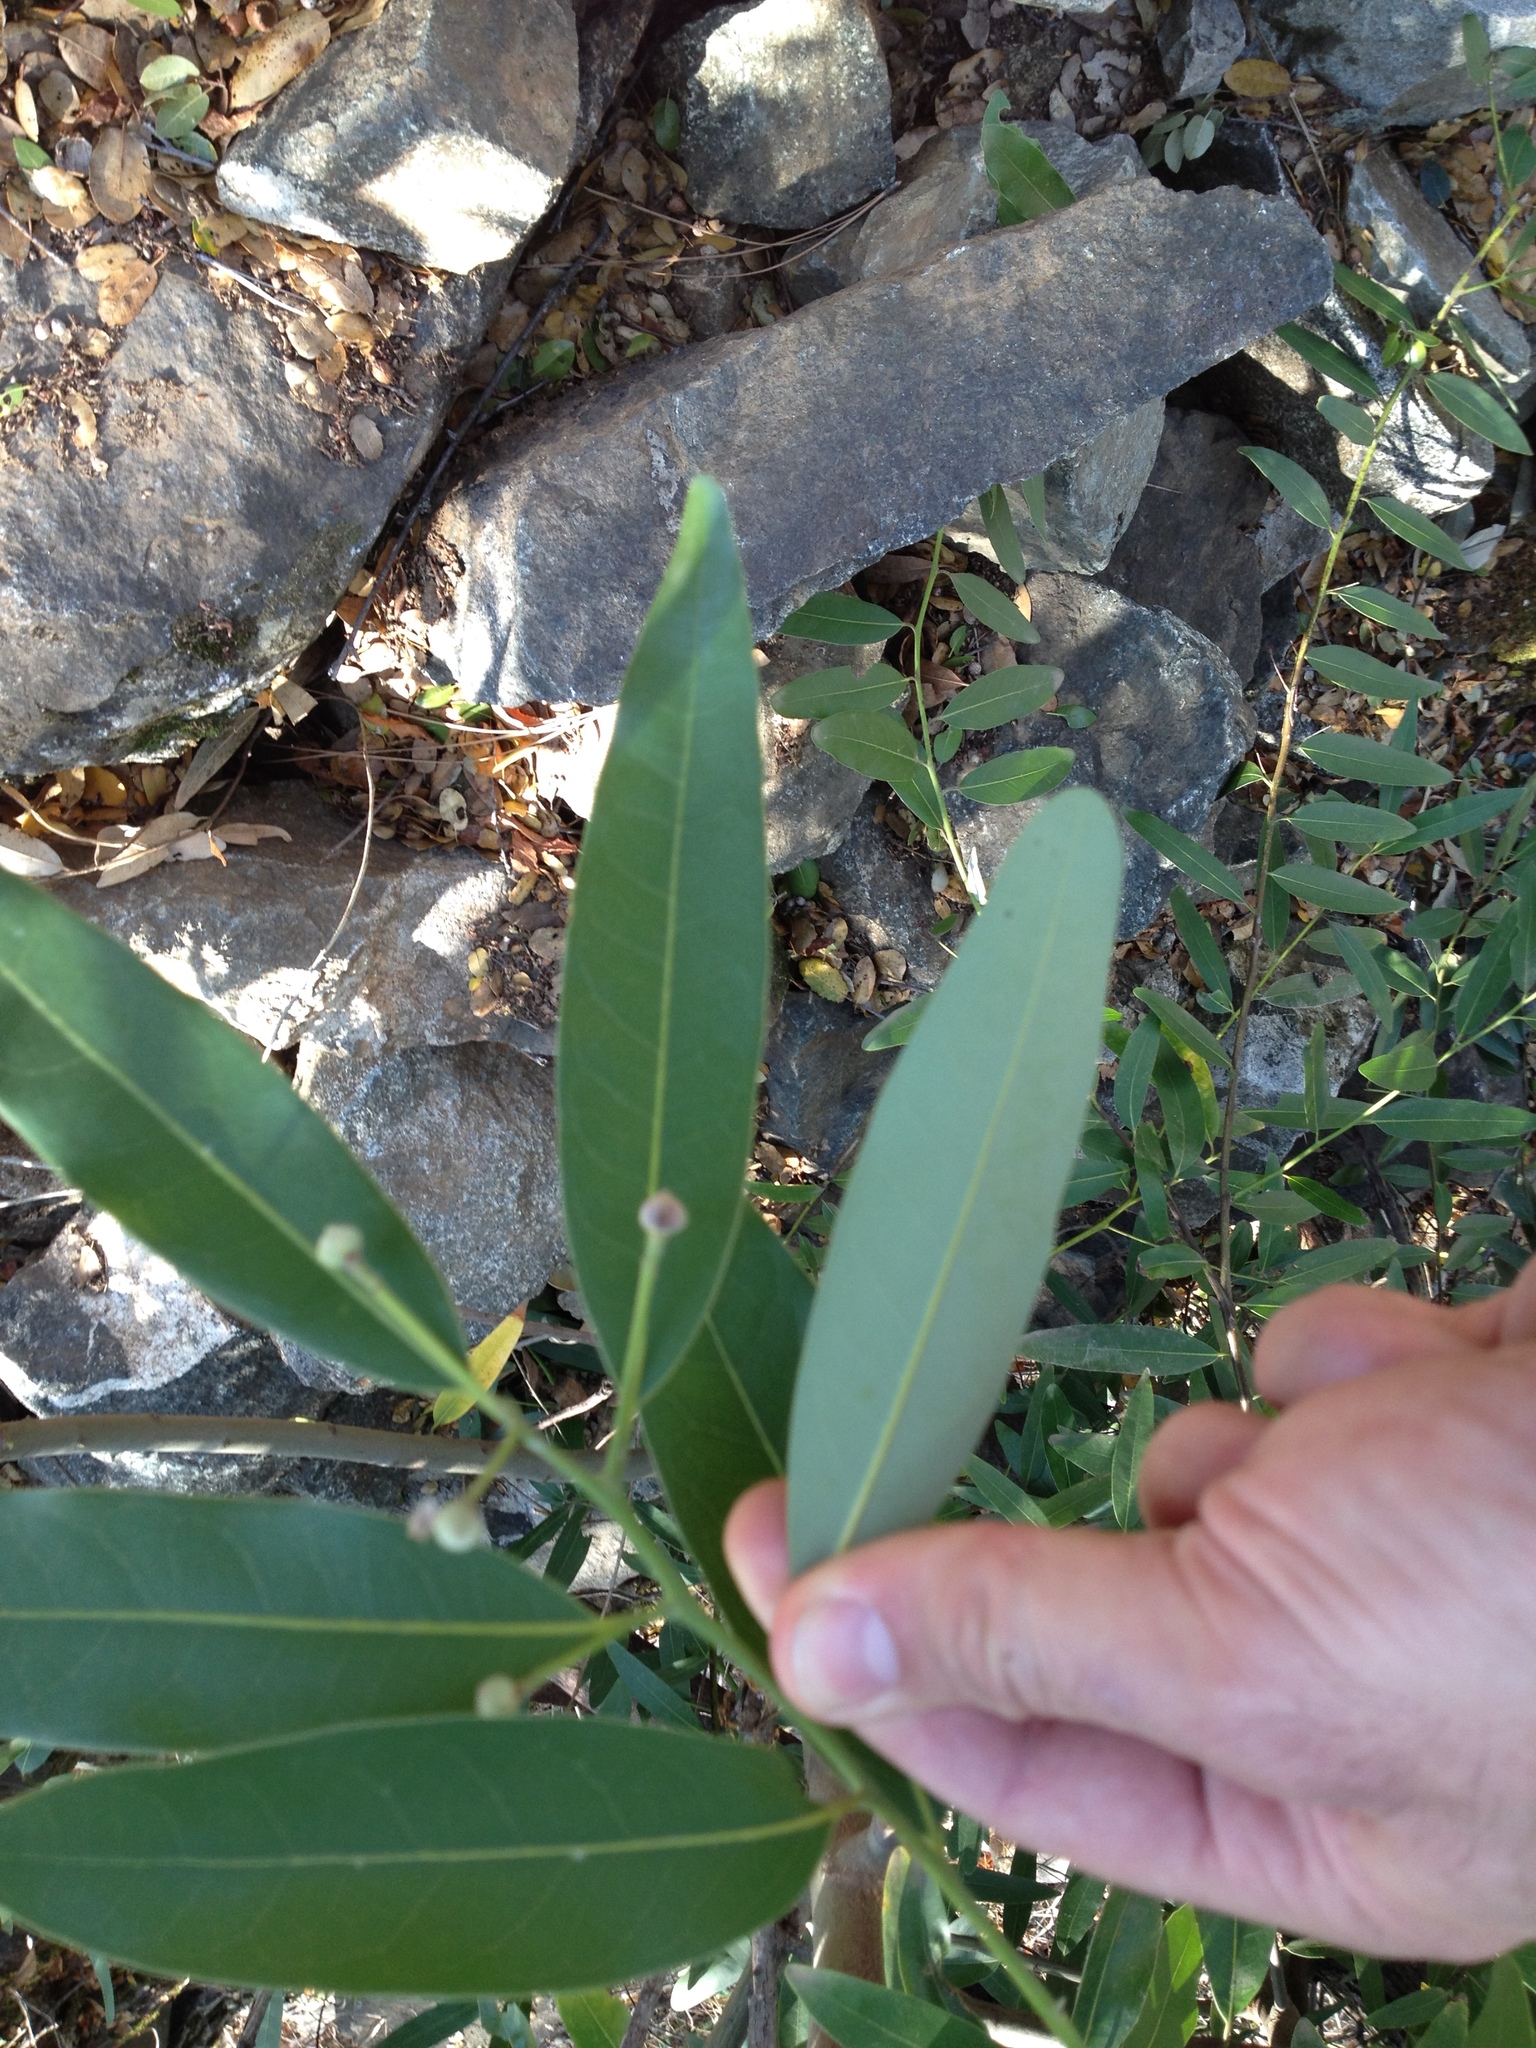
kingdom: Plantae
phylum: Tracheophyta
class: Magnoliopsida
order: Laurales
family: Lauraceae
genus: Umbellularia
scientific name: Umbellularia californica
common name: California bay
